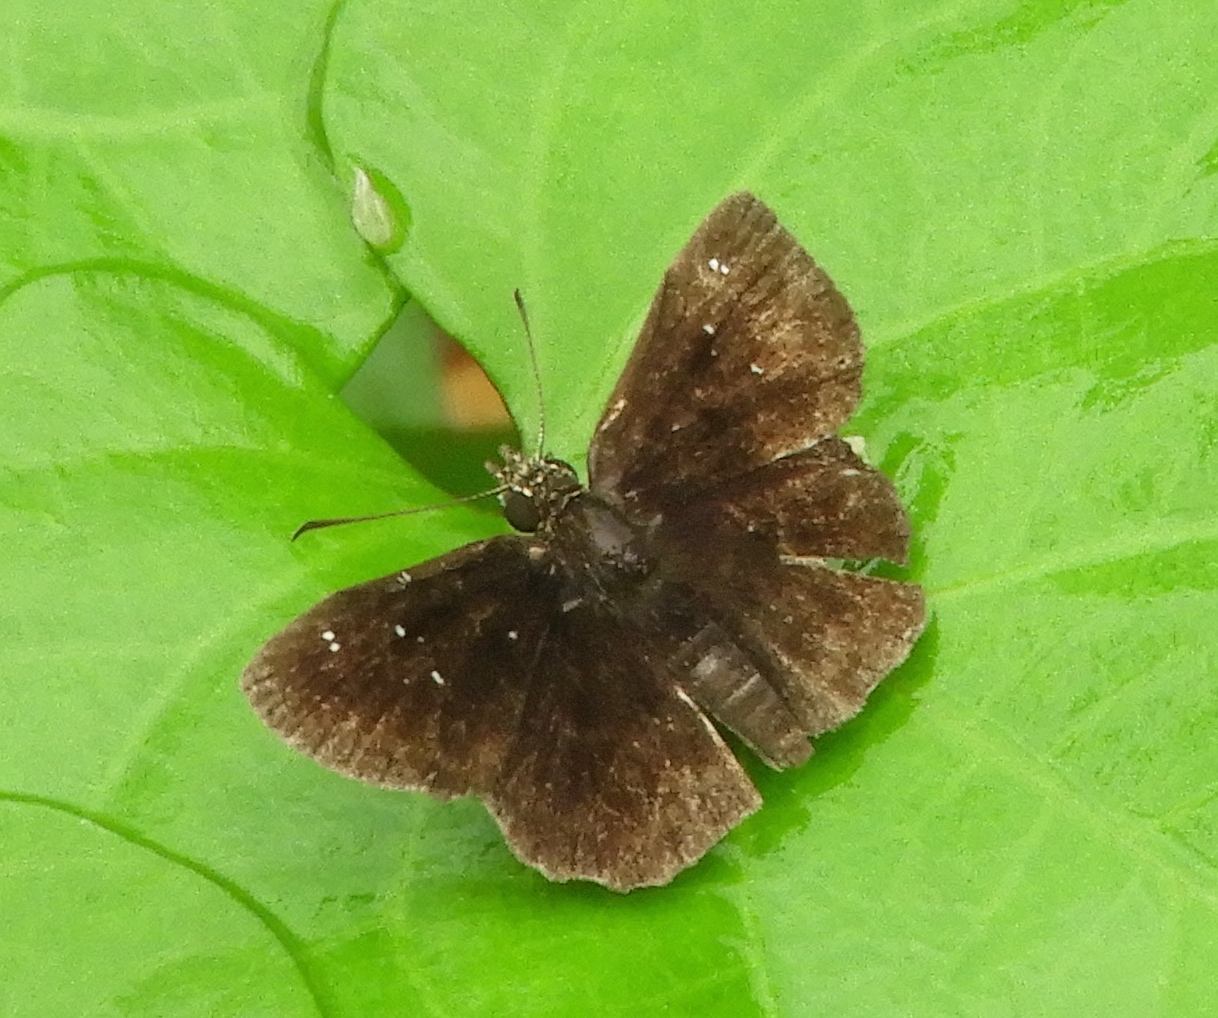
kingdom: Animalia
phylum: Arthropoda
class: Insecta
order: Lepidoptera
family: Hesperiidae
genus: Staphylus
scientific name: Staphylus mazans
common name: Mazans scallopwing
